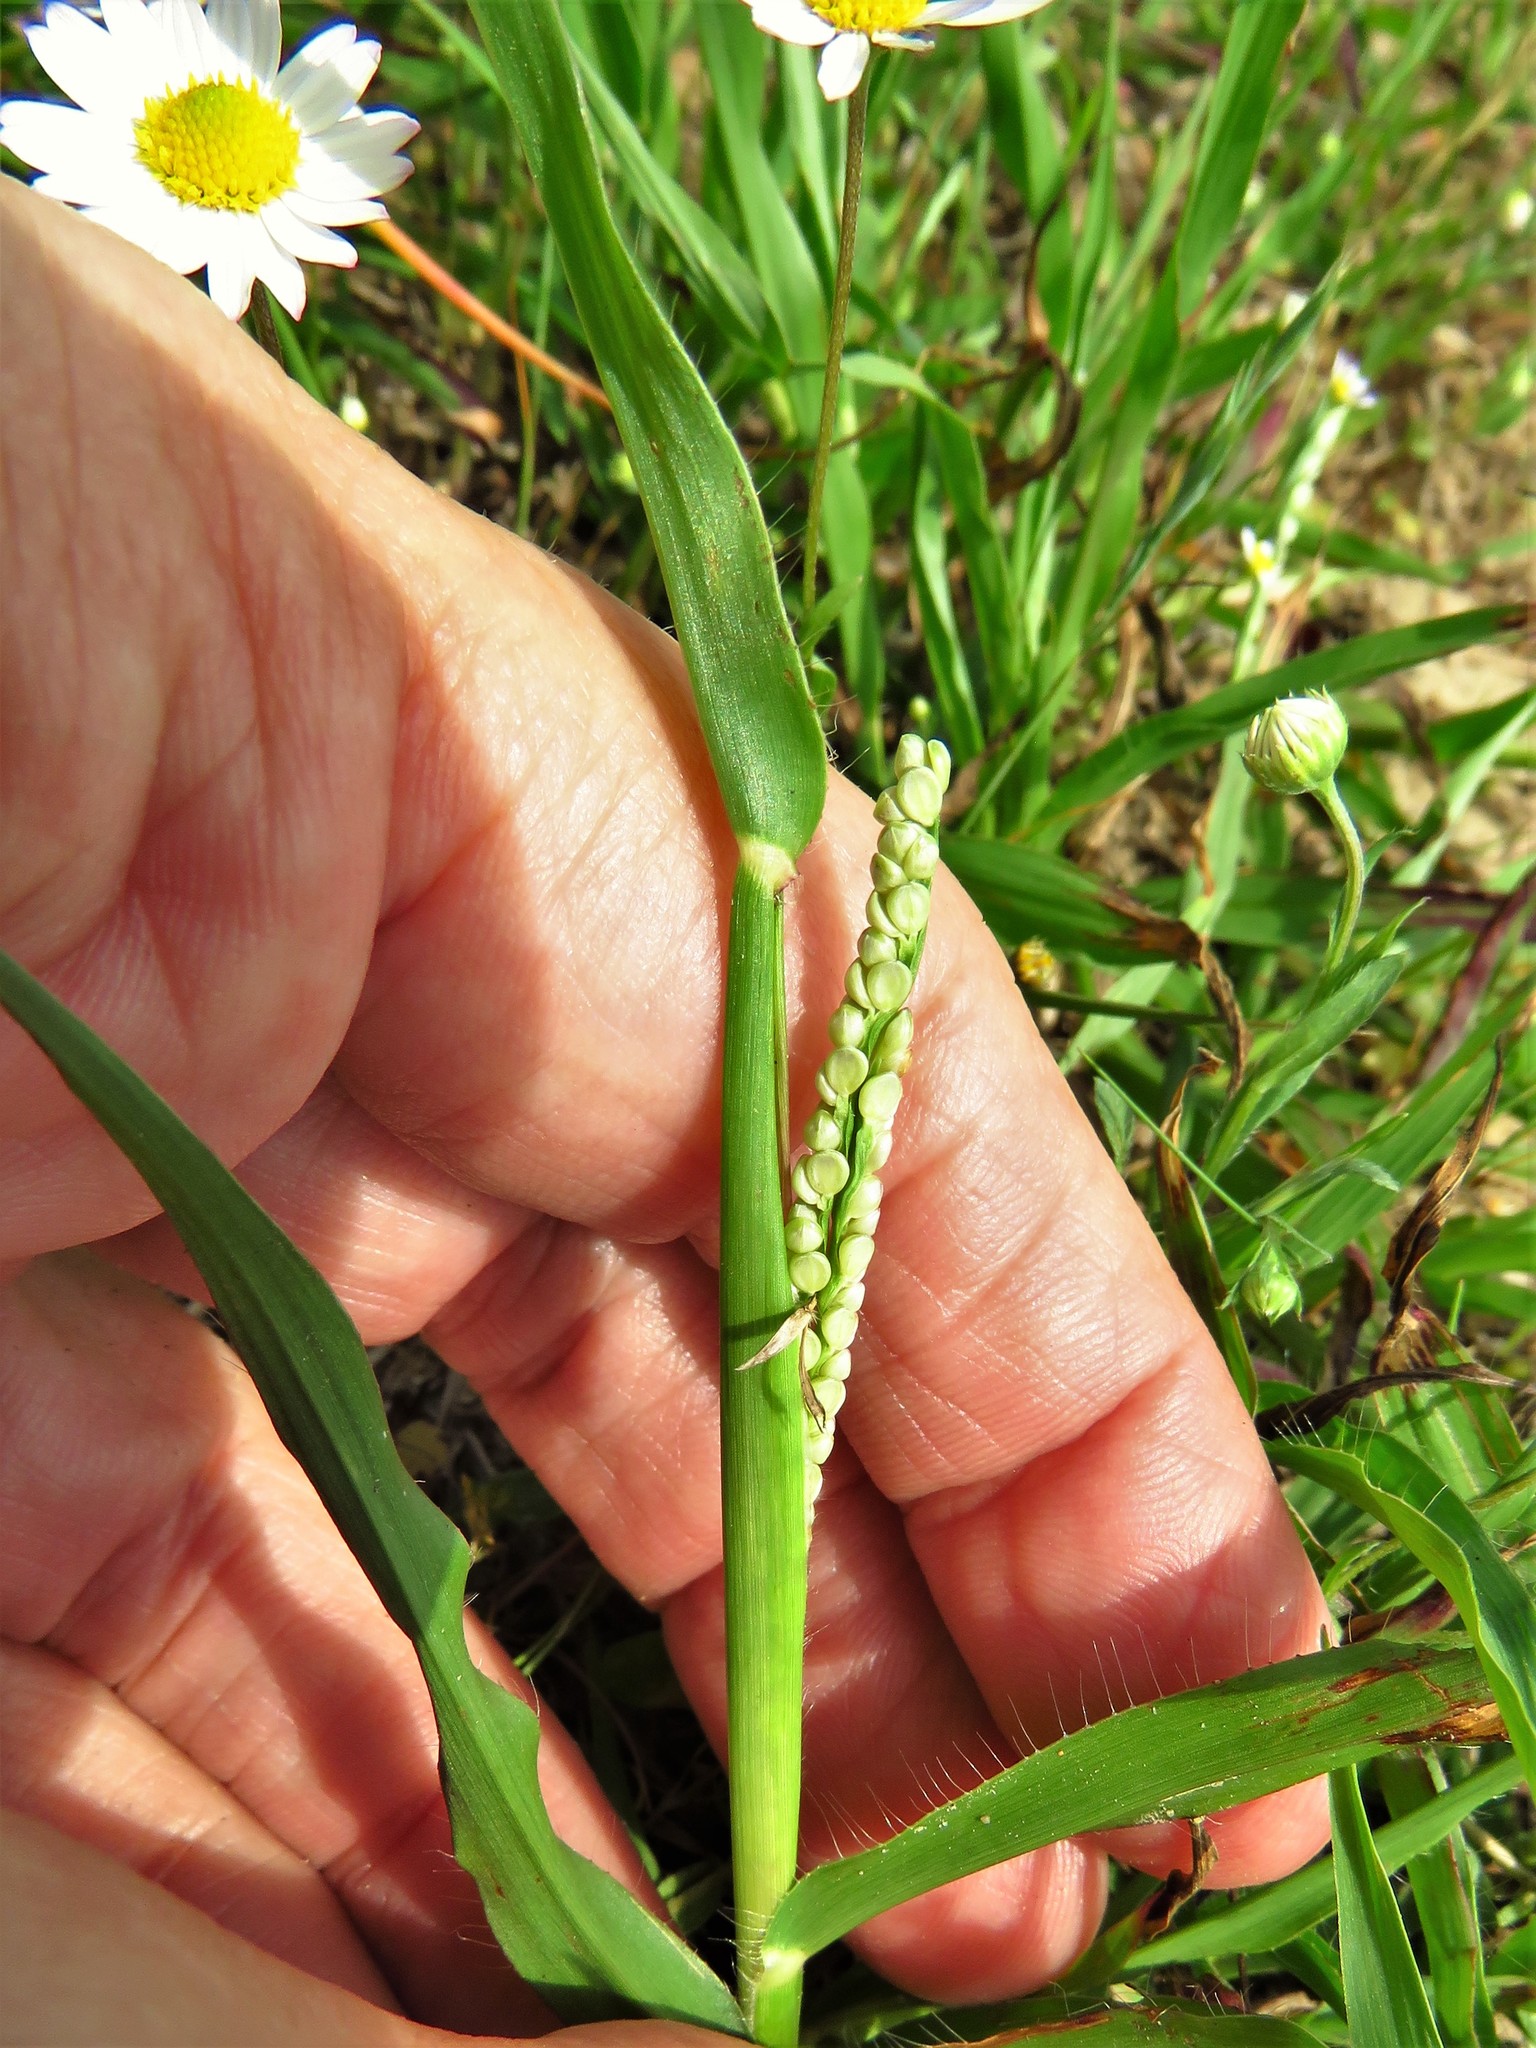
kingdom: Plantae
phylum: Tracheophyta
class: Liliopsida
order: Poales
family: Poaceae
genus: Paspalum
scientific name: Paspalum setaceum
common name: Slender paspalum
